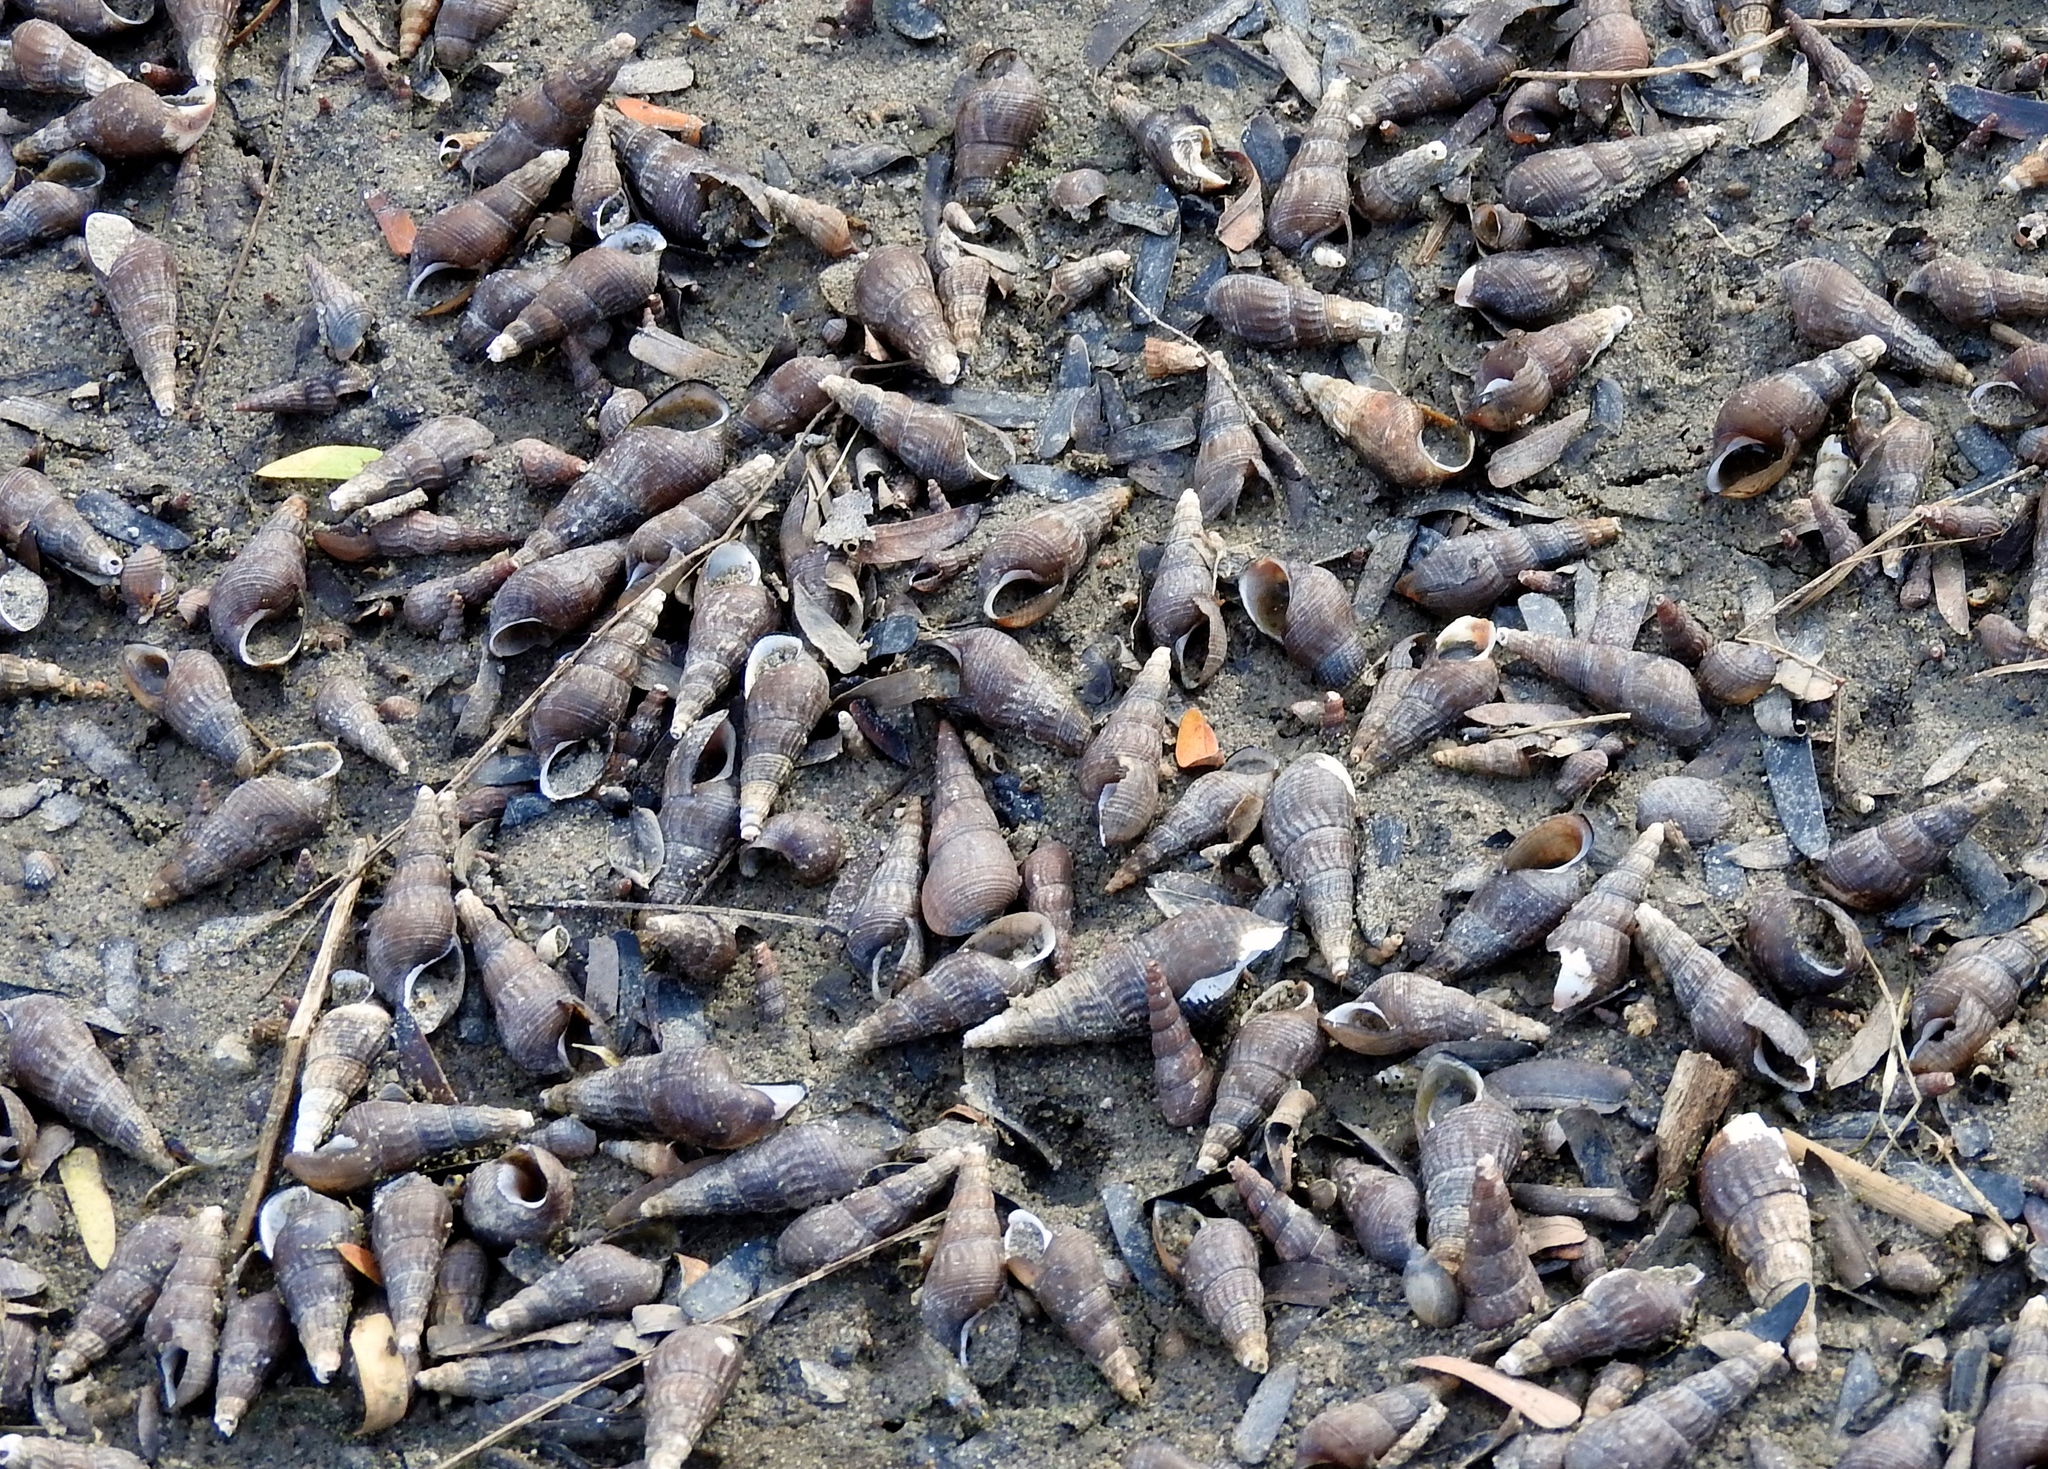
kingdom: Animalia
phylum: Mollusca
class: Gastropoda
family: Thiaridae
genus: Melanoides
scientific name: Melanoides tuberculata
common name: Red-rim melania
